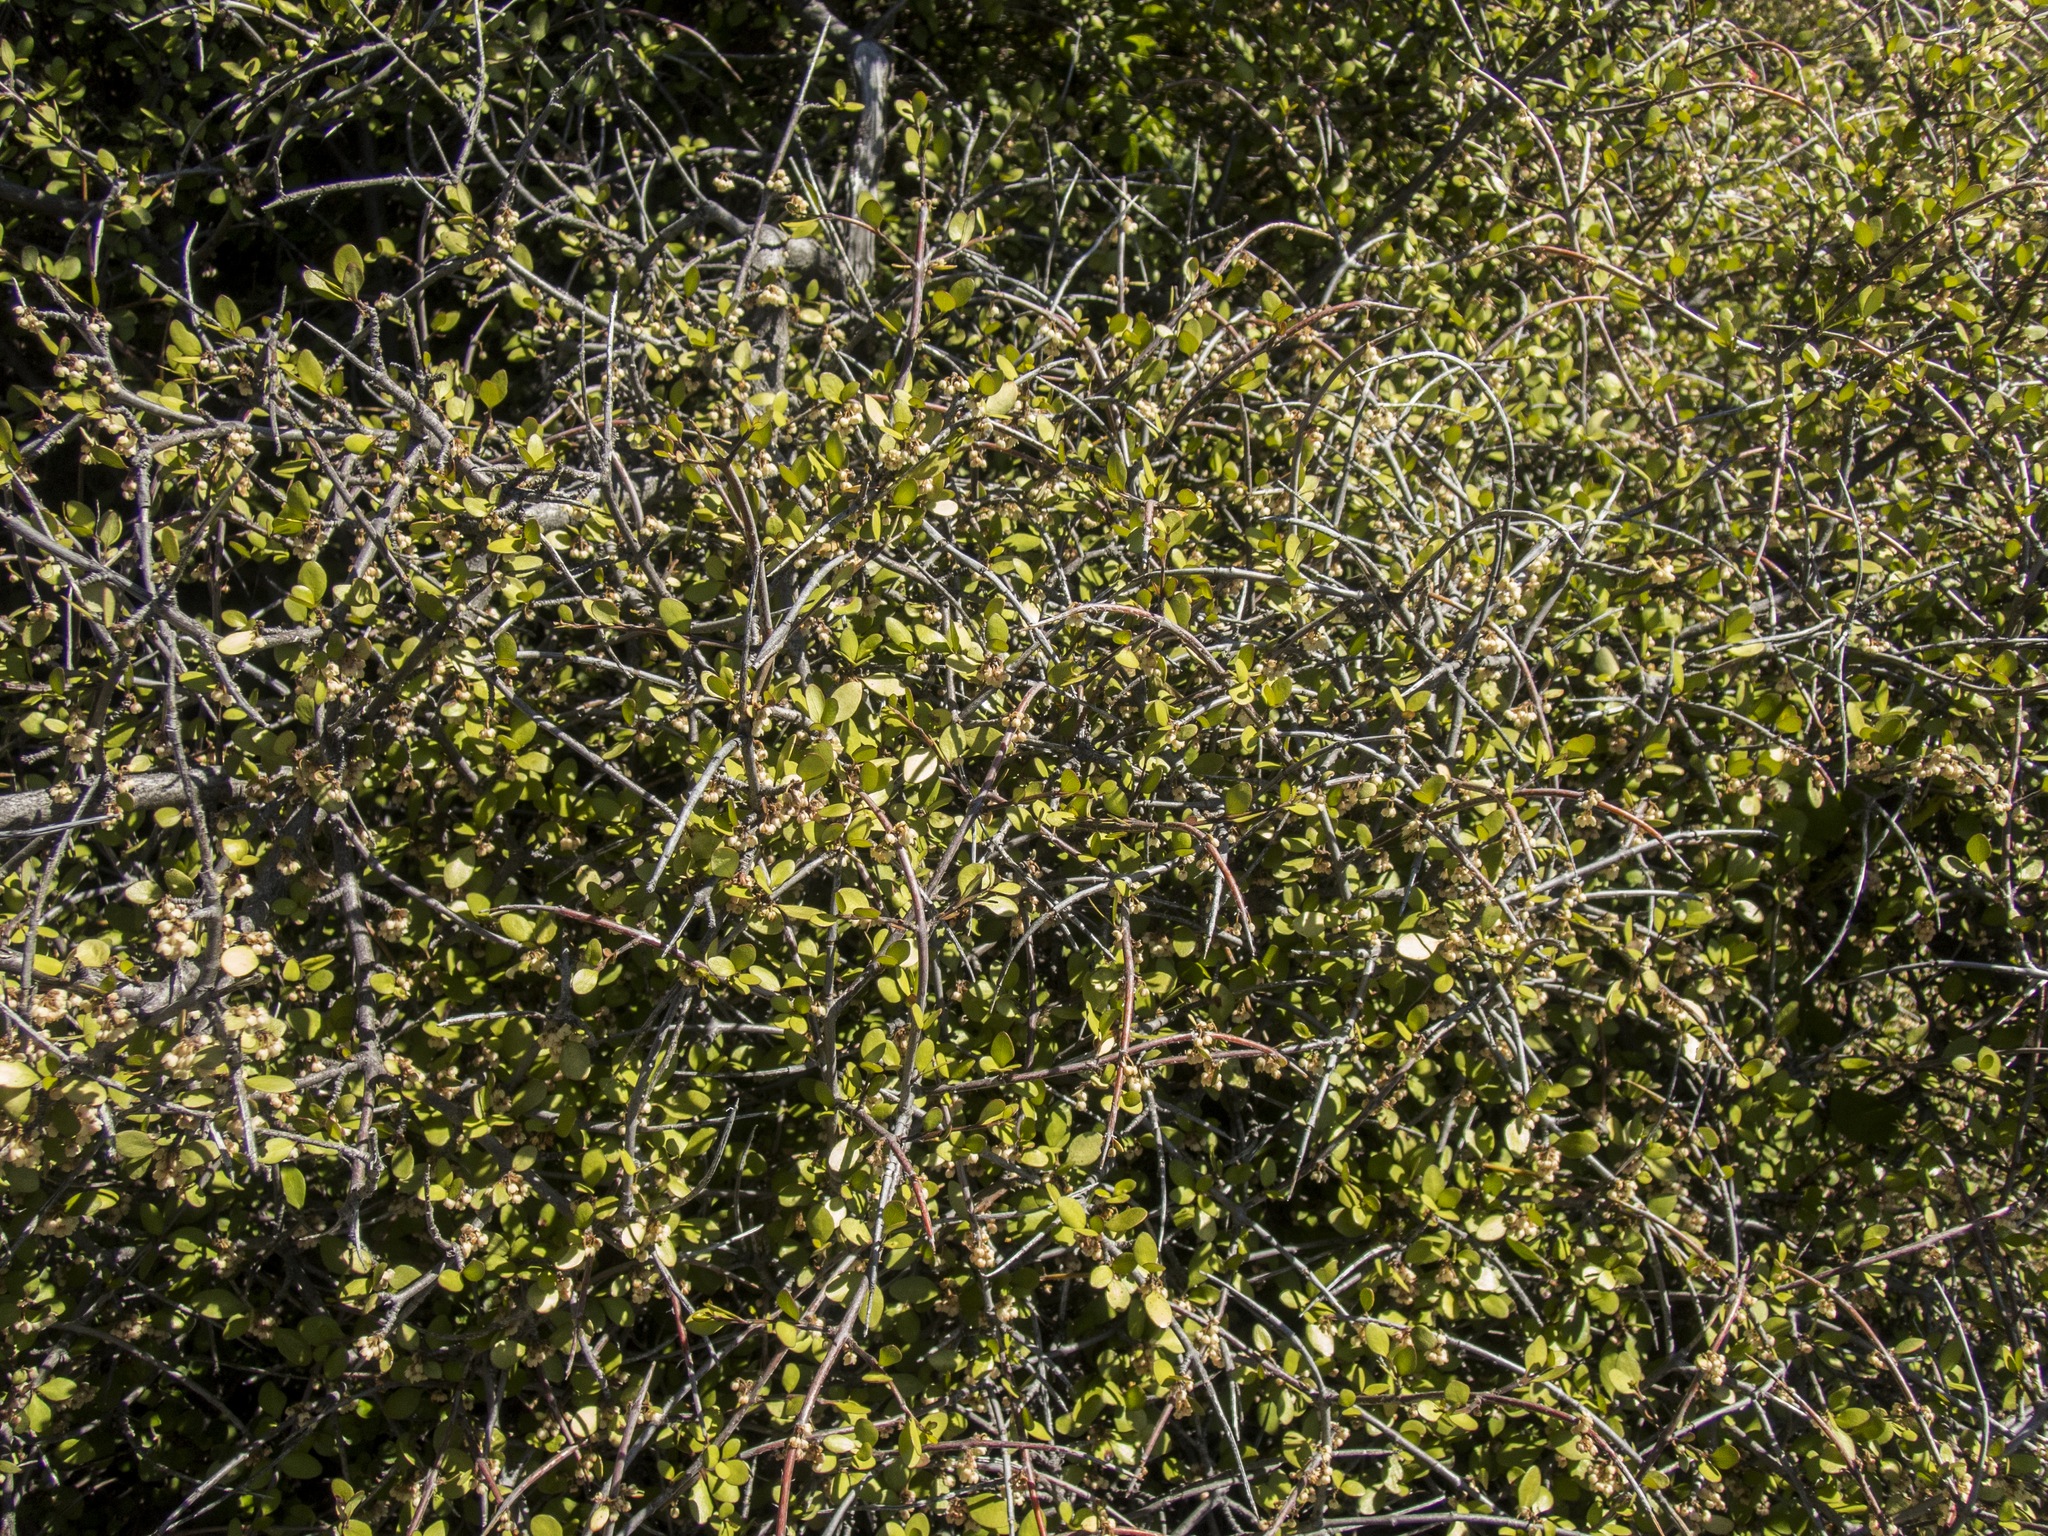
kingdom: Plantae
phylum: Tracheophyta
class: Magnoliopsida
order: Oxalidales
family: Elaeocarpaceae
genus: Aristotelia
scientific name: Aristotelia fruticosa
